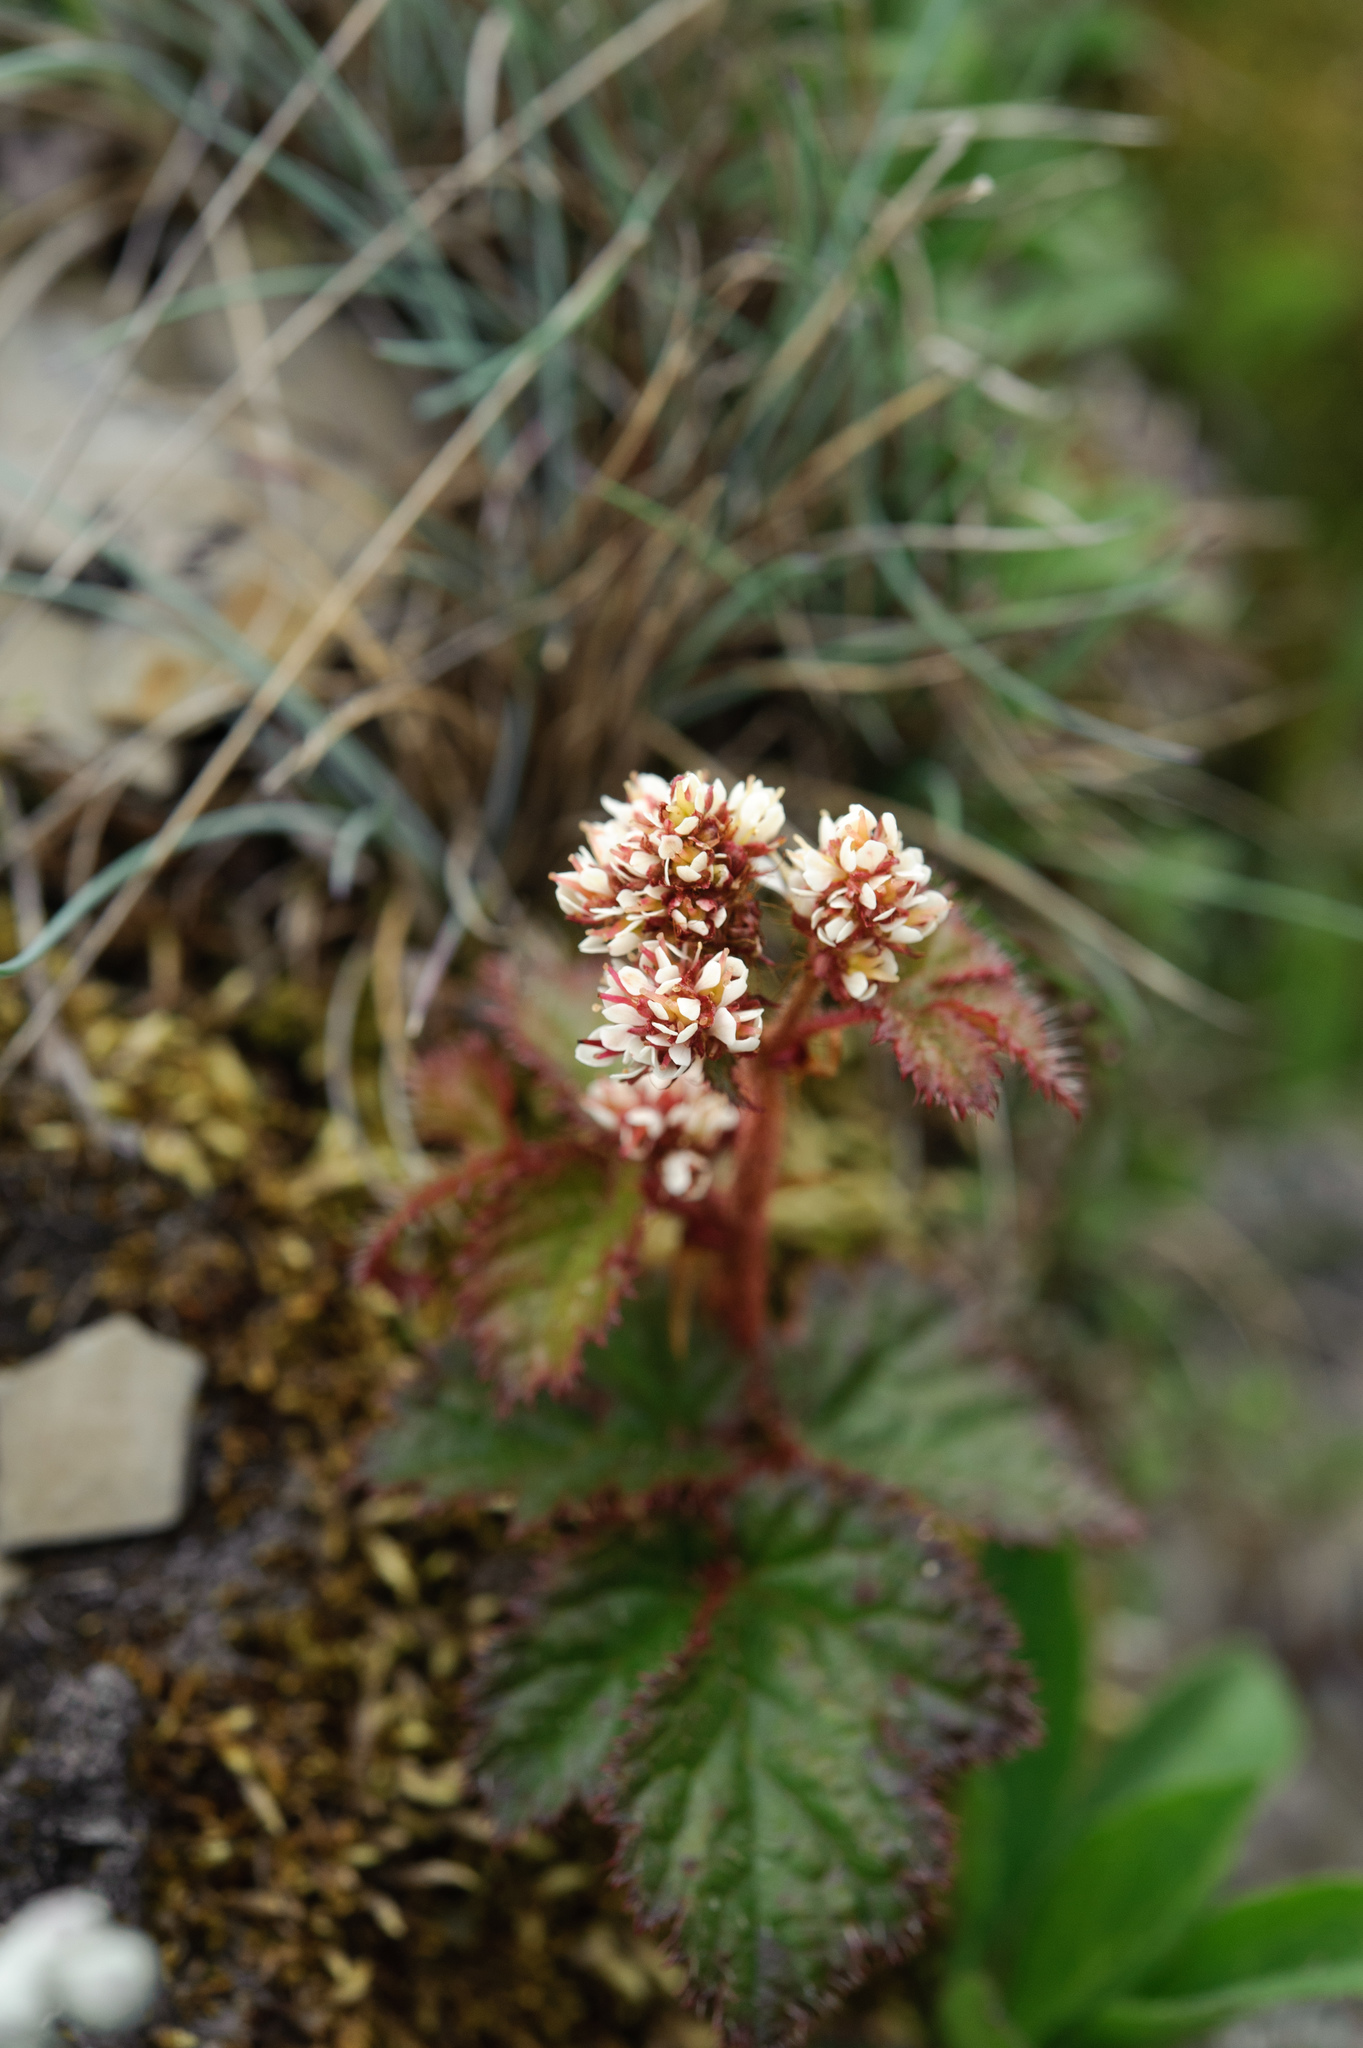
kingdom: Plantae
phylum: Tracheophyta
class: Magnoliopsida
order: Saxifragales
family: Saxifragaceae
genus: Astilbe
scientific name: Astilbe macroflora
